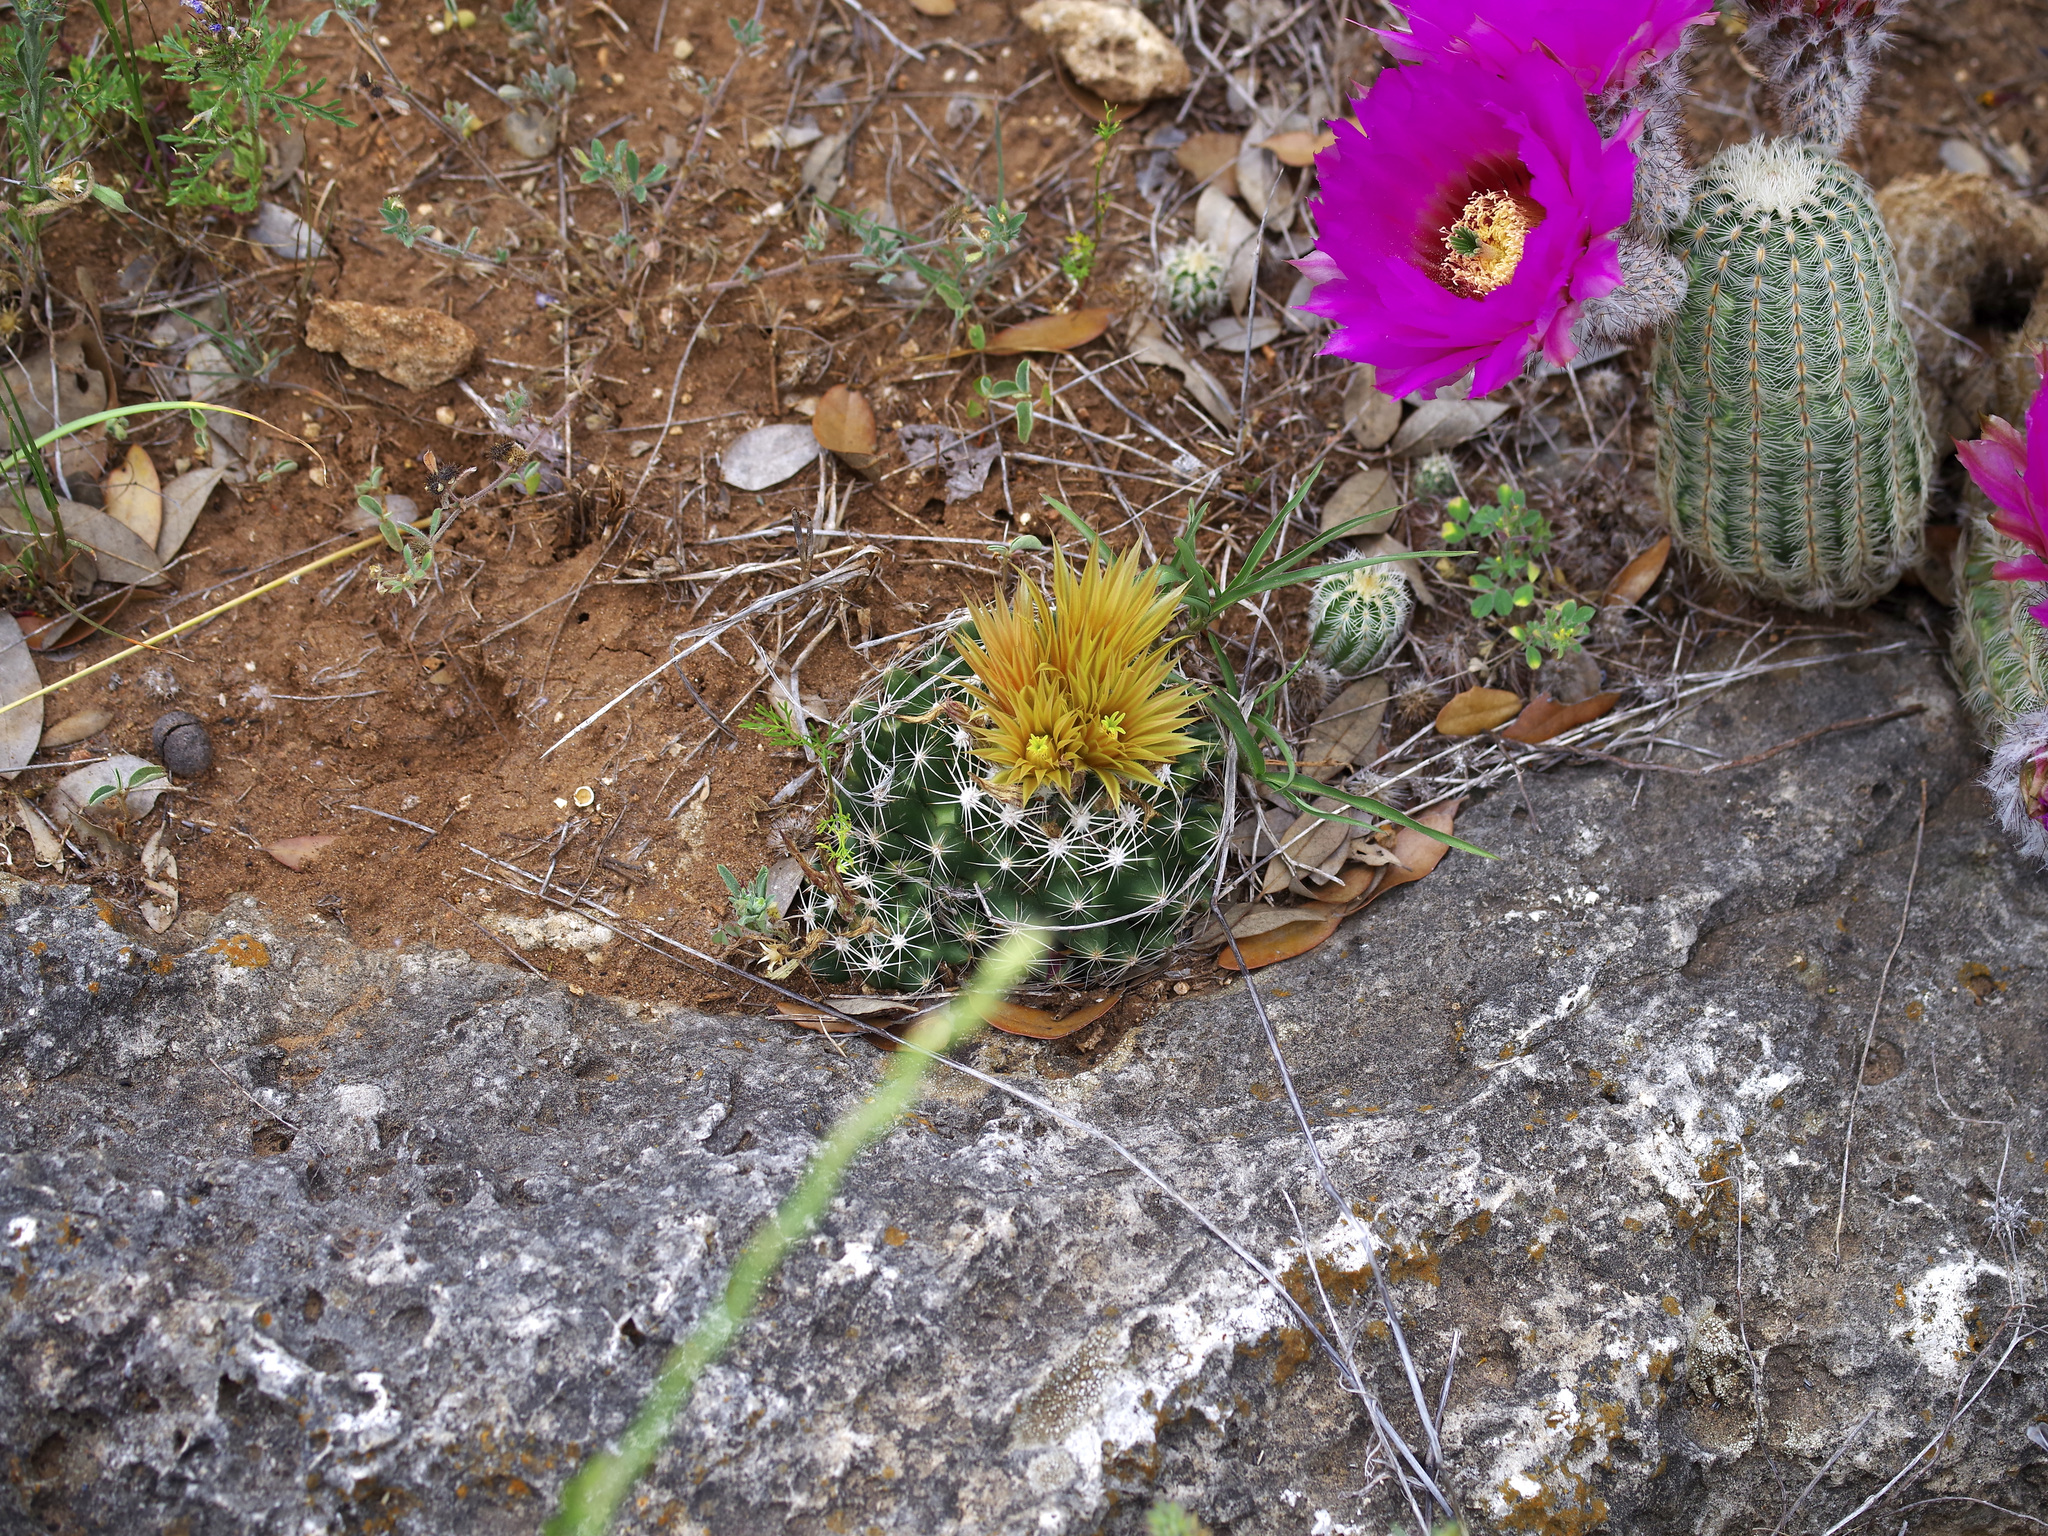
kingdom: Plantae
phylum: Tracheophyta
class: Magnoliopsida
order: Caryophyllales
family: Cactaceae
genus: Pelecyphora
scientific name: Pelecyphora missouriensis
